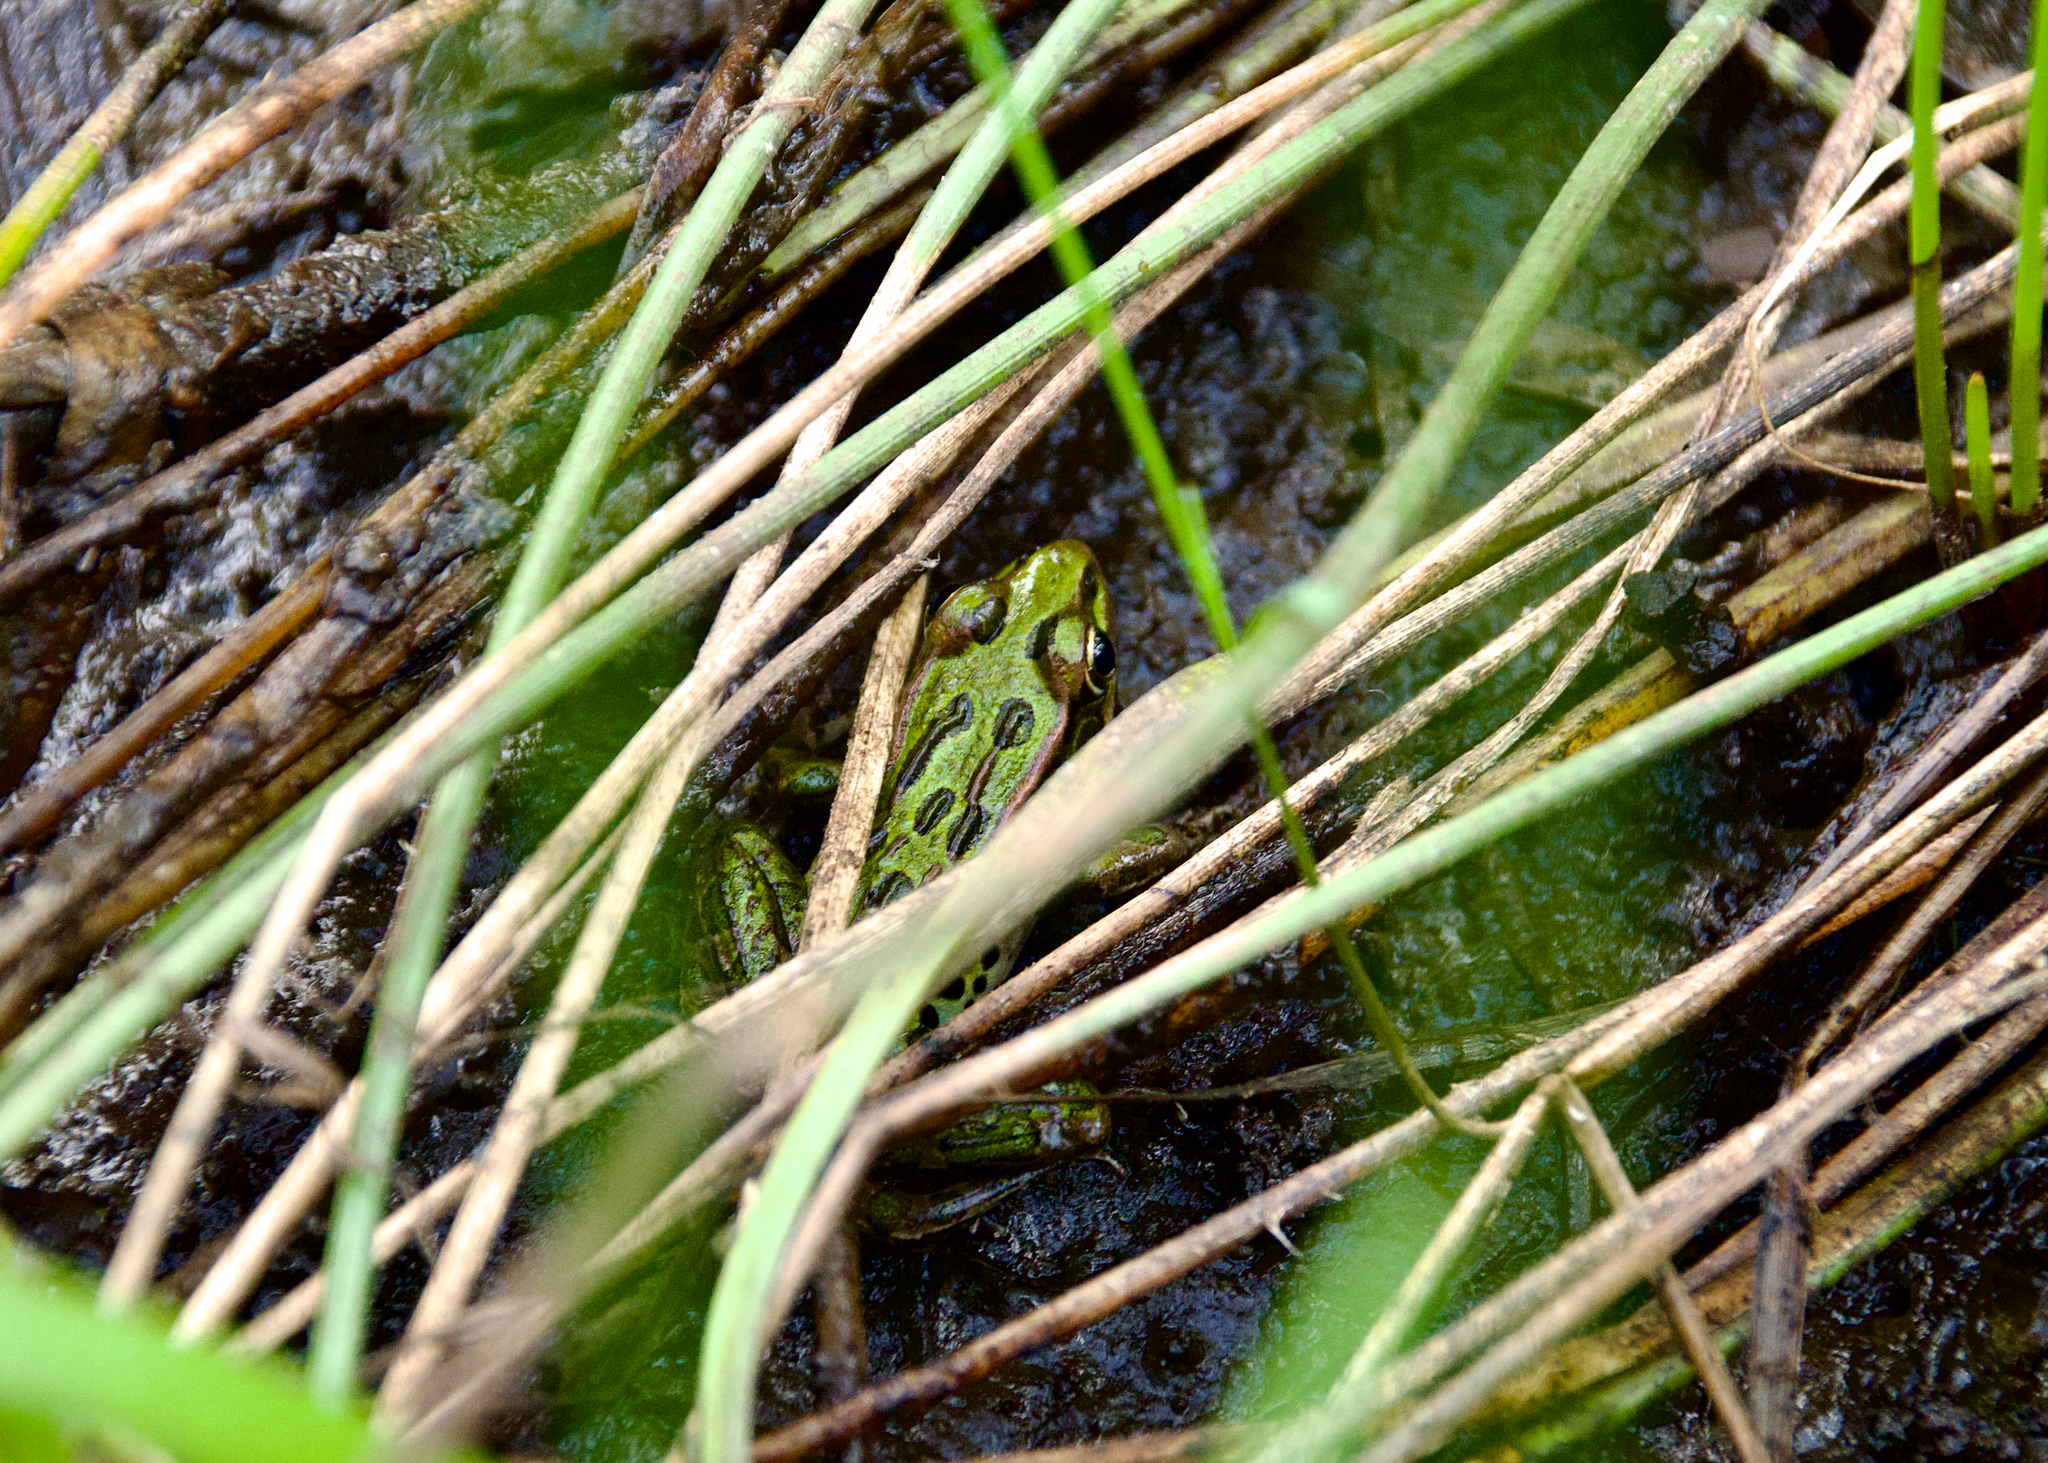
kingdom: Animalia
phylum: Chordata
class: Amphibia
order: Anura
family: Ranidae
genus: Lithobates
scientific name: Lithobates pipiens
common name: Northern leopard frog
